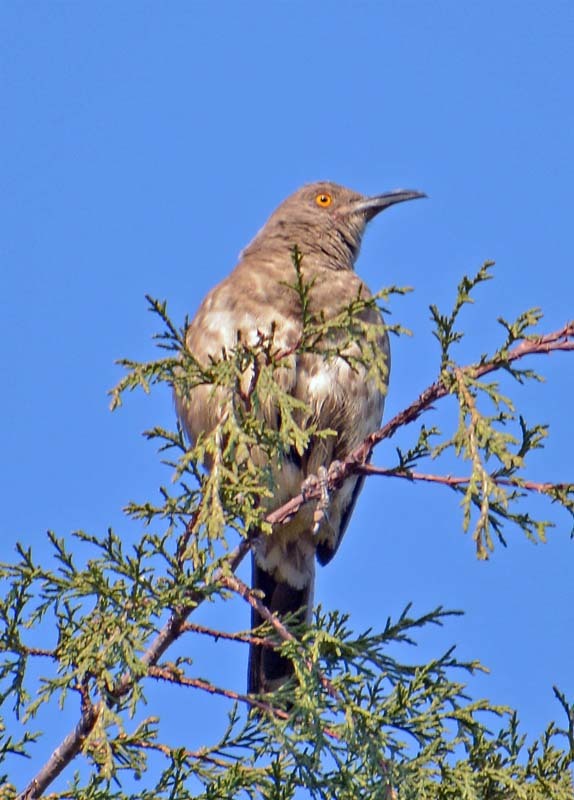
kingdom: Animalia
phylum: Chordata
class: Aves
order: Passeriformes
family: Mimidae
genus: Toxostoma
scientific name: Toxostoma curvirostre
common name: Curve-billed thrasher
